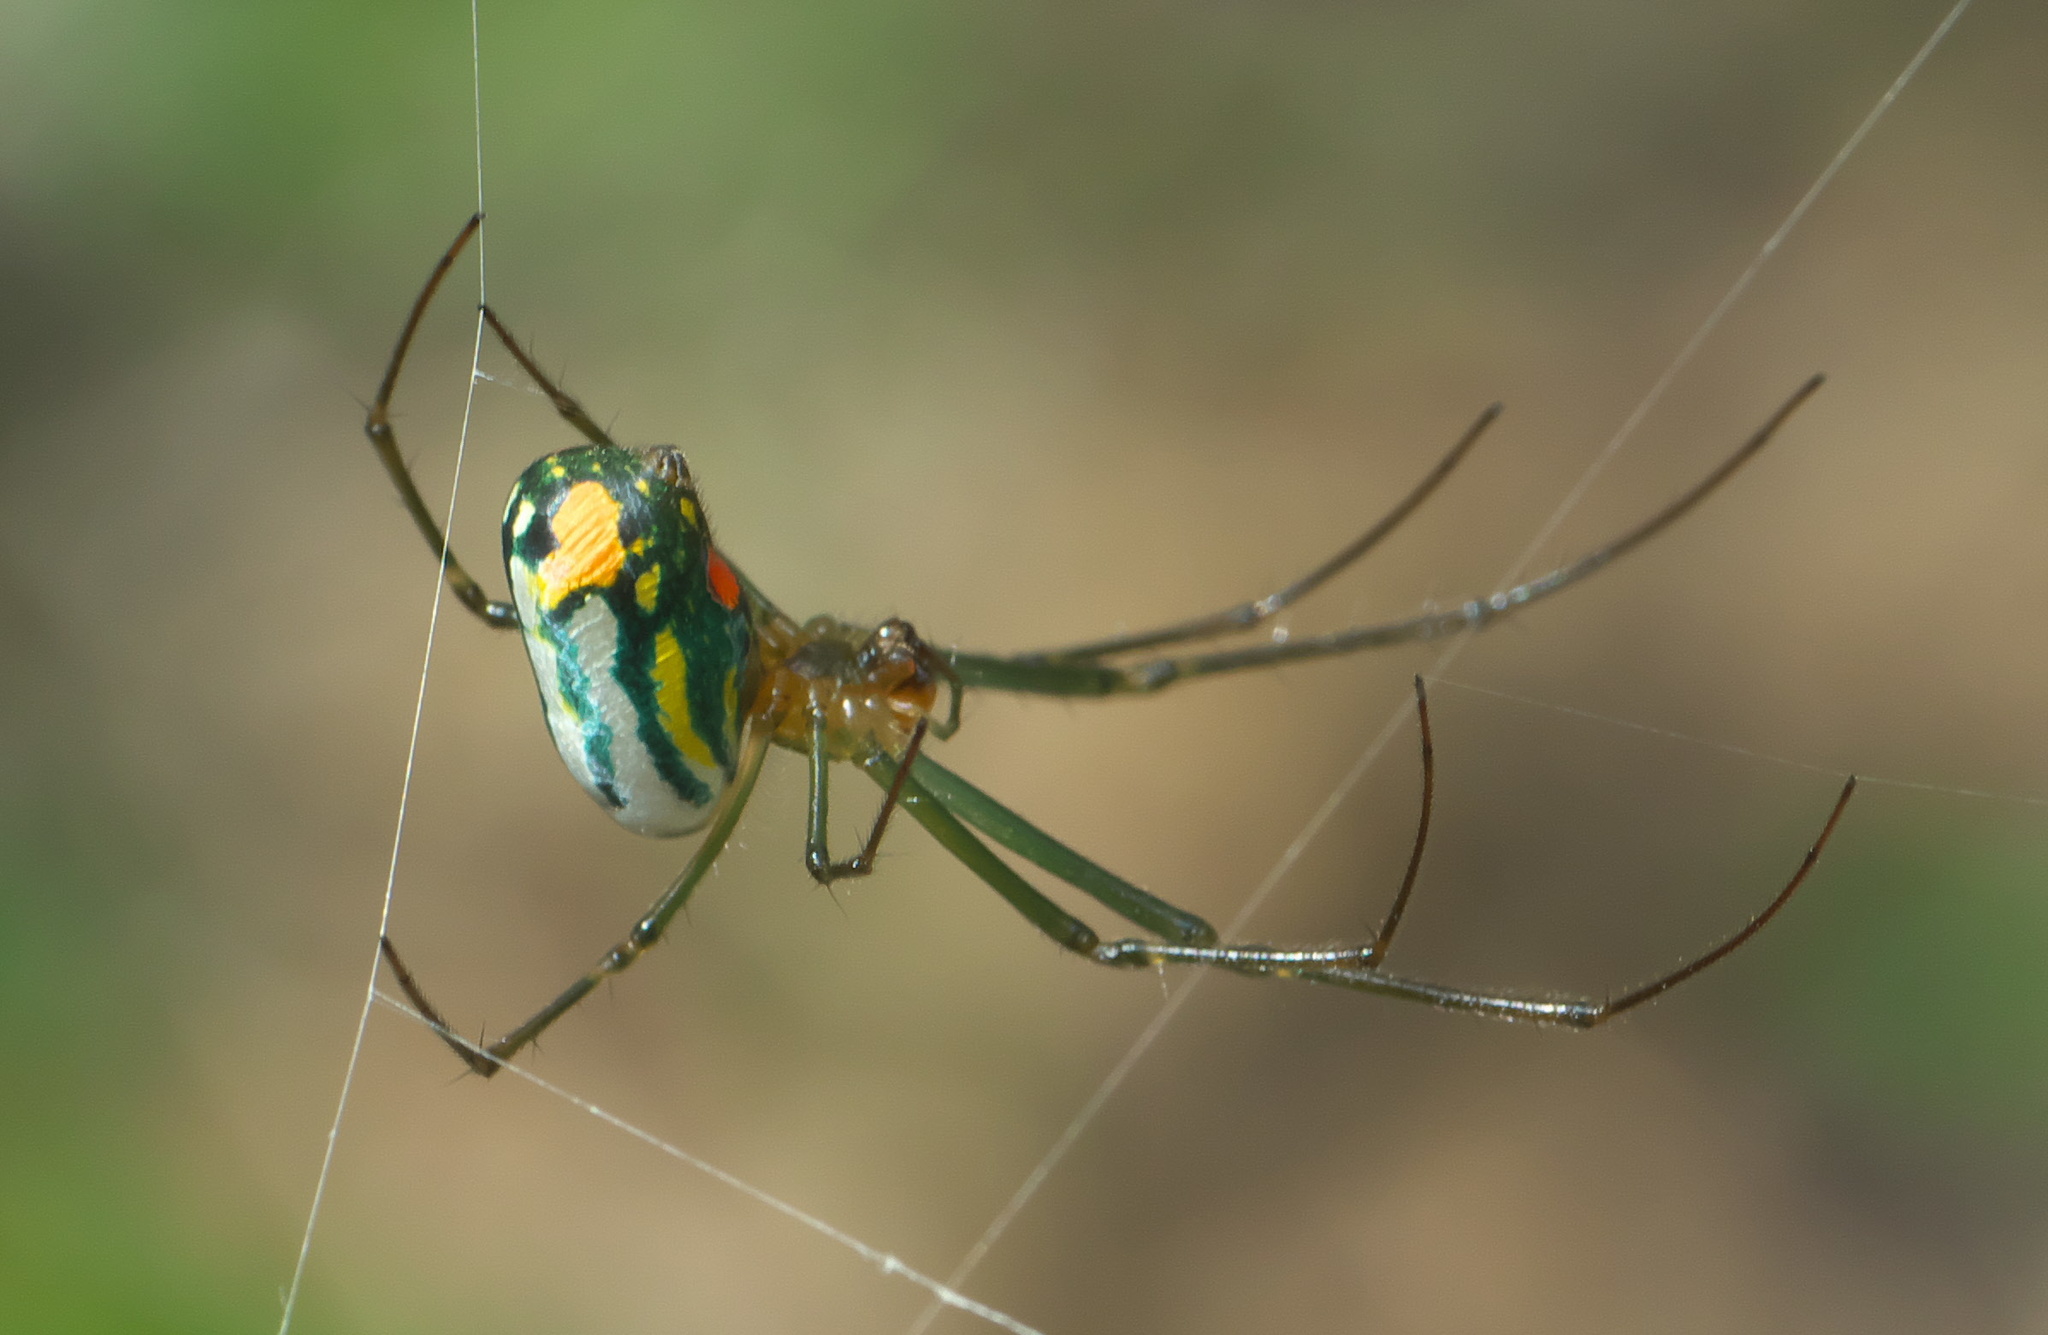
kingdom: Animalia
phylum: Arthropoda
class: Arachnida
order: Araneae
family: Tetragnathidae
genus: Leucauge
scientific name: Leucauge argyrobapta
